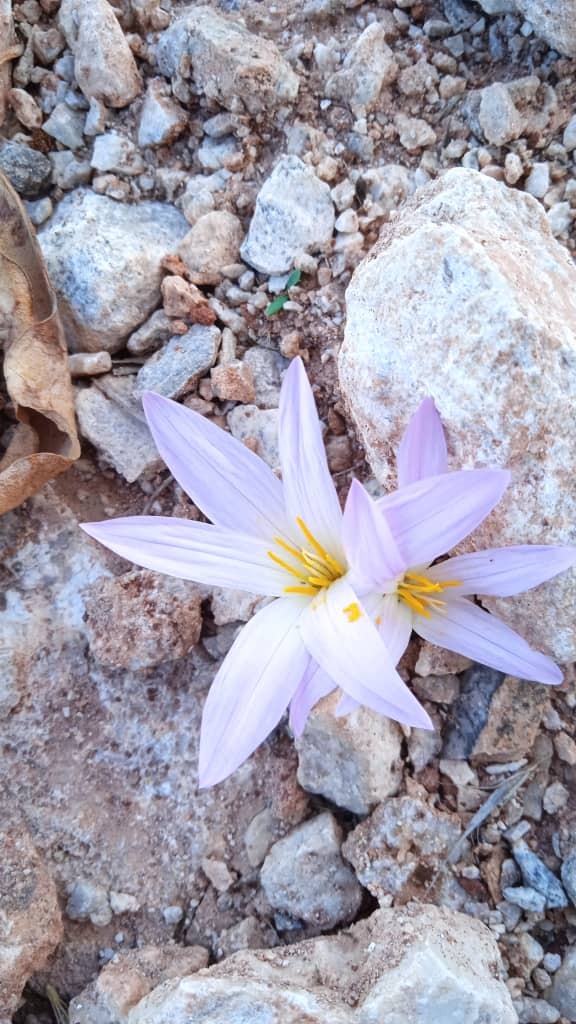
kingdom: Plantae
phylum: Tracheophyta
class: Liliopsida
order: Liliales
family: Colchicaceae
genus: Colchicum
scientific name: Colchicum filifolium
